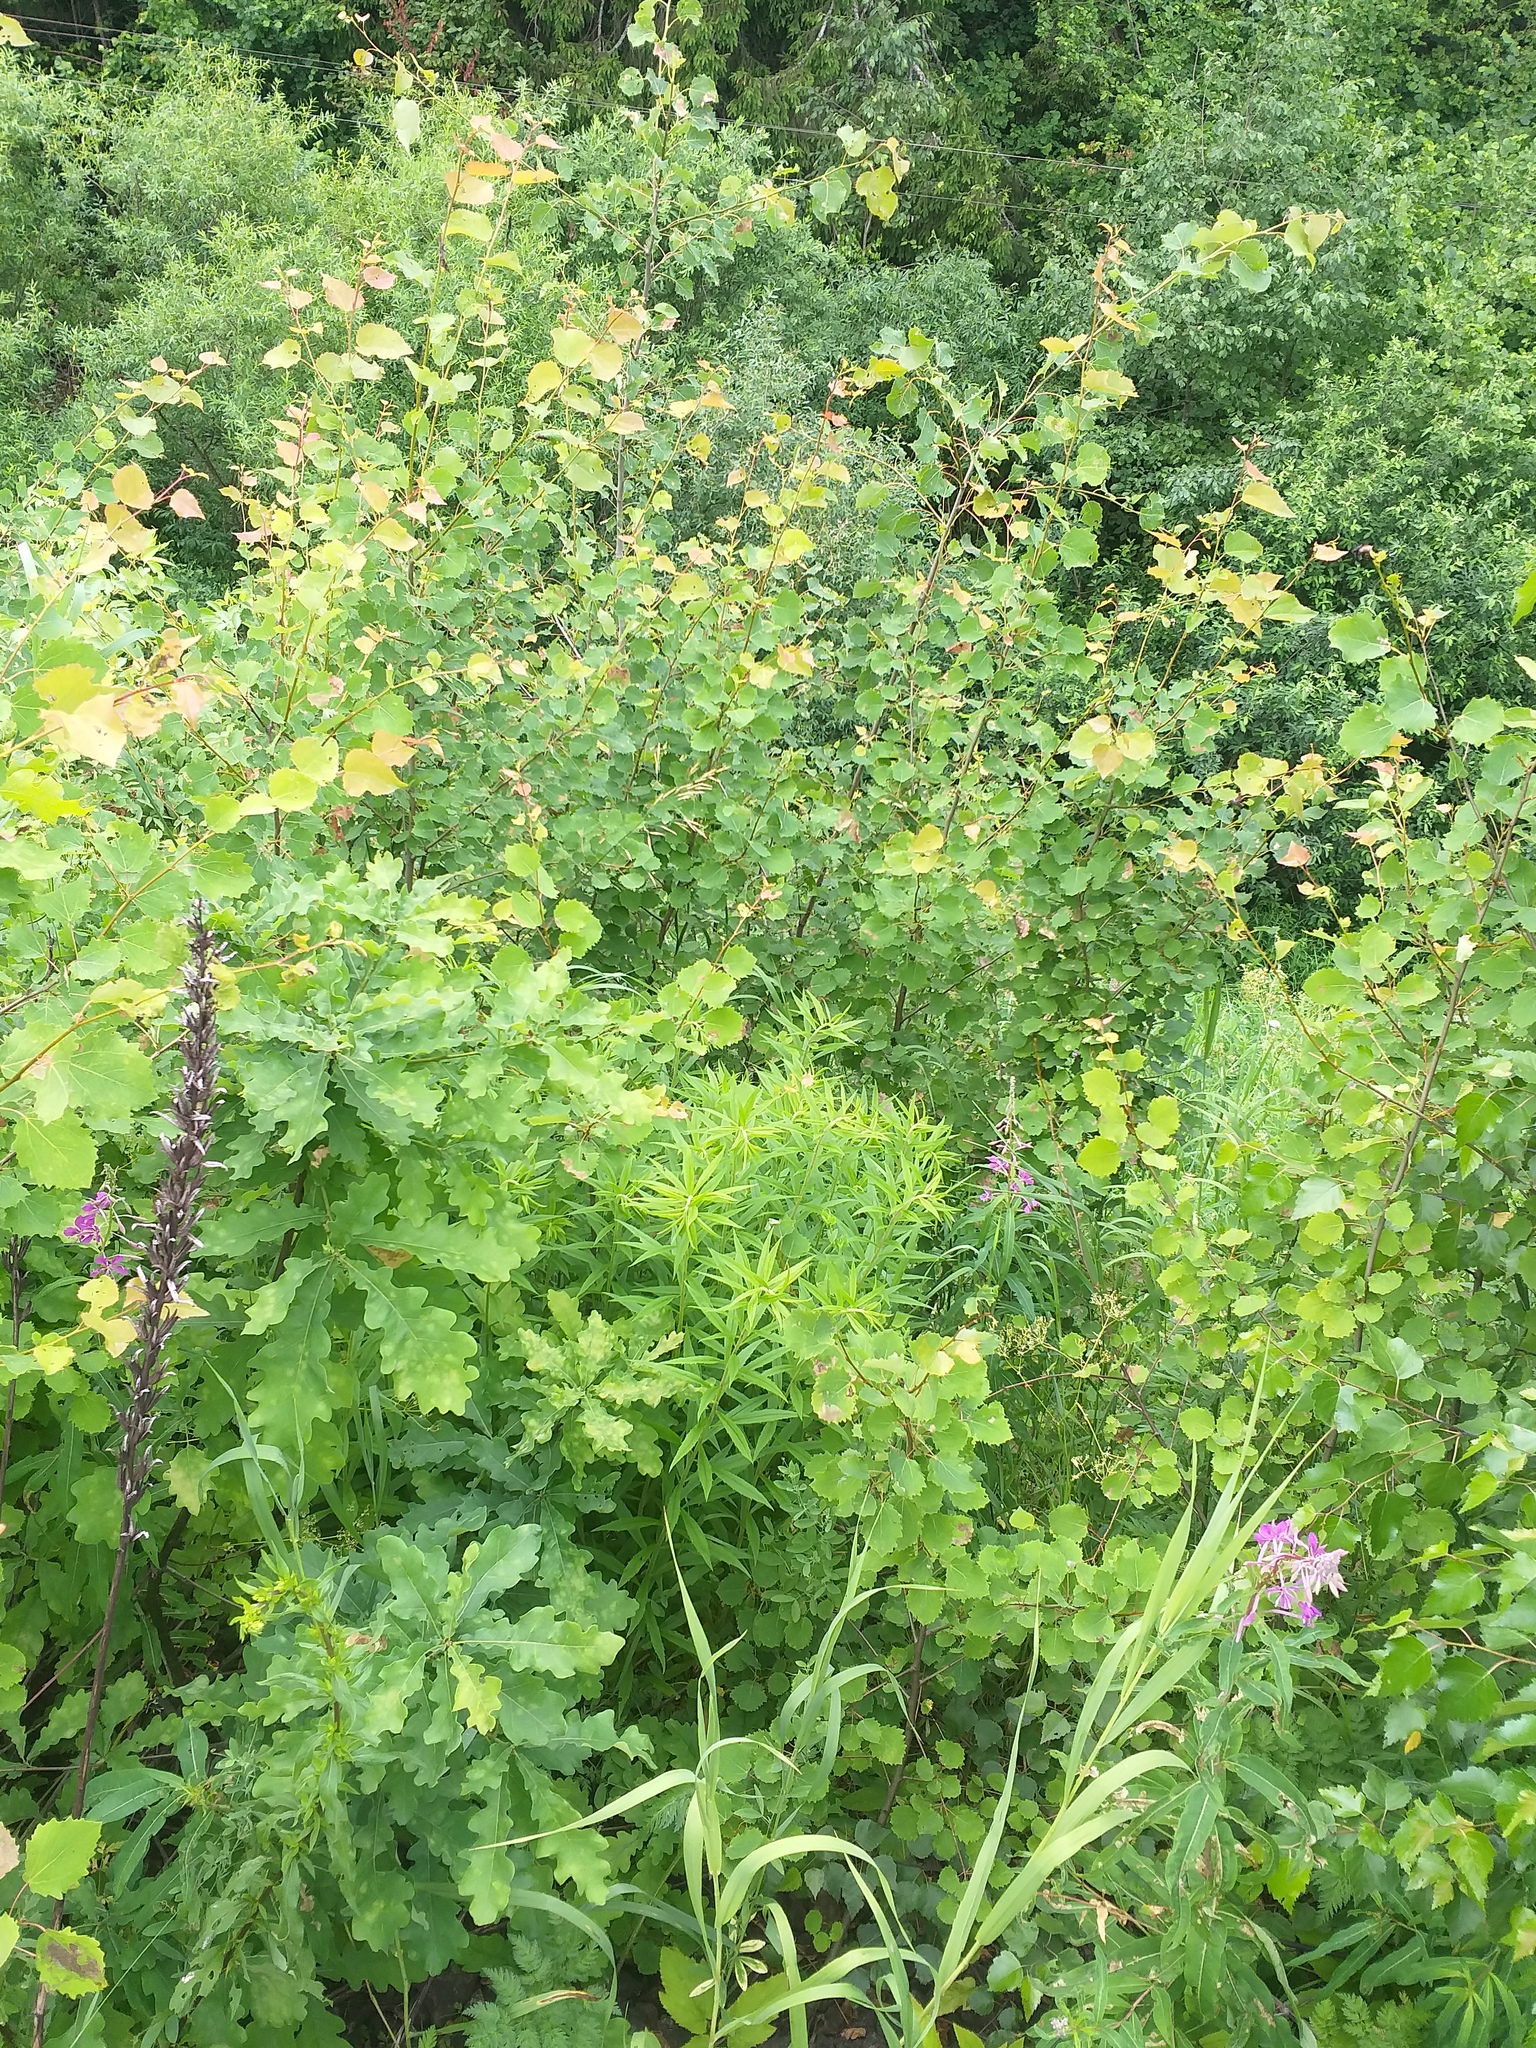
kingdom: Plantae
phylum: Tracheophyta
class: Magnoliopsida
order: Malpighiales
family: Salicaceae
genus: Populus
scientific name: Populus tremula
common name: European aspen
